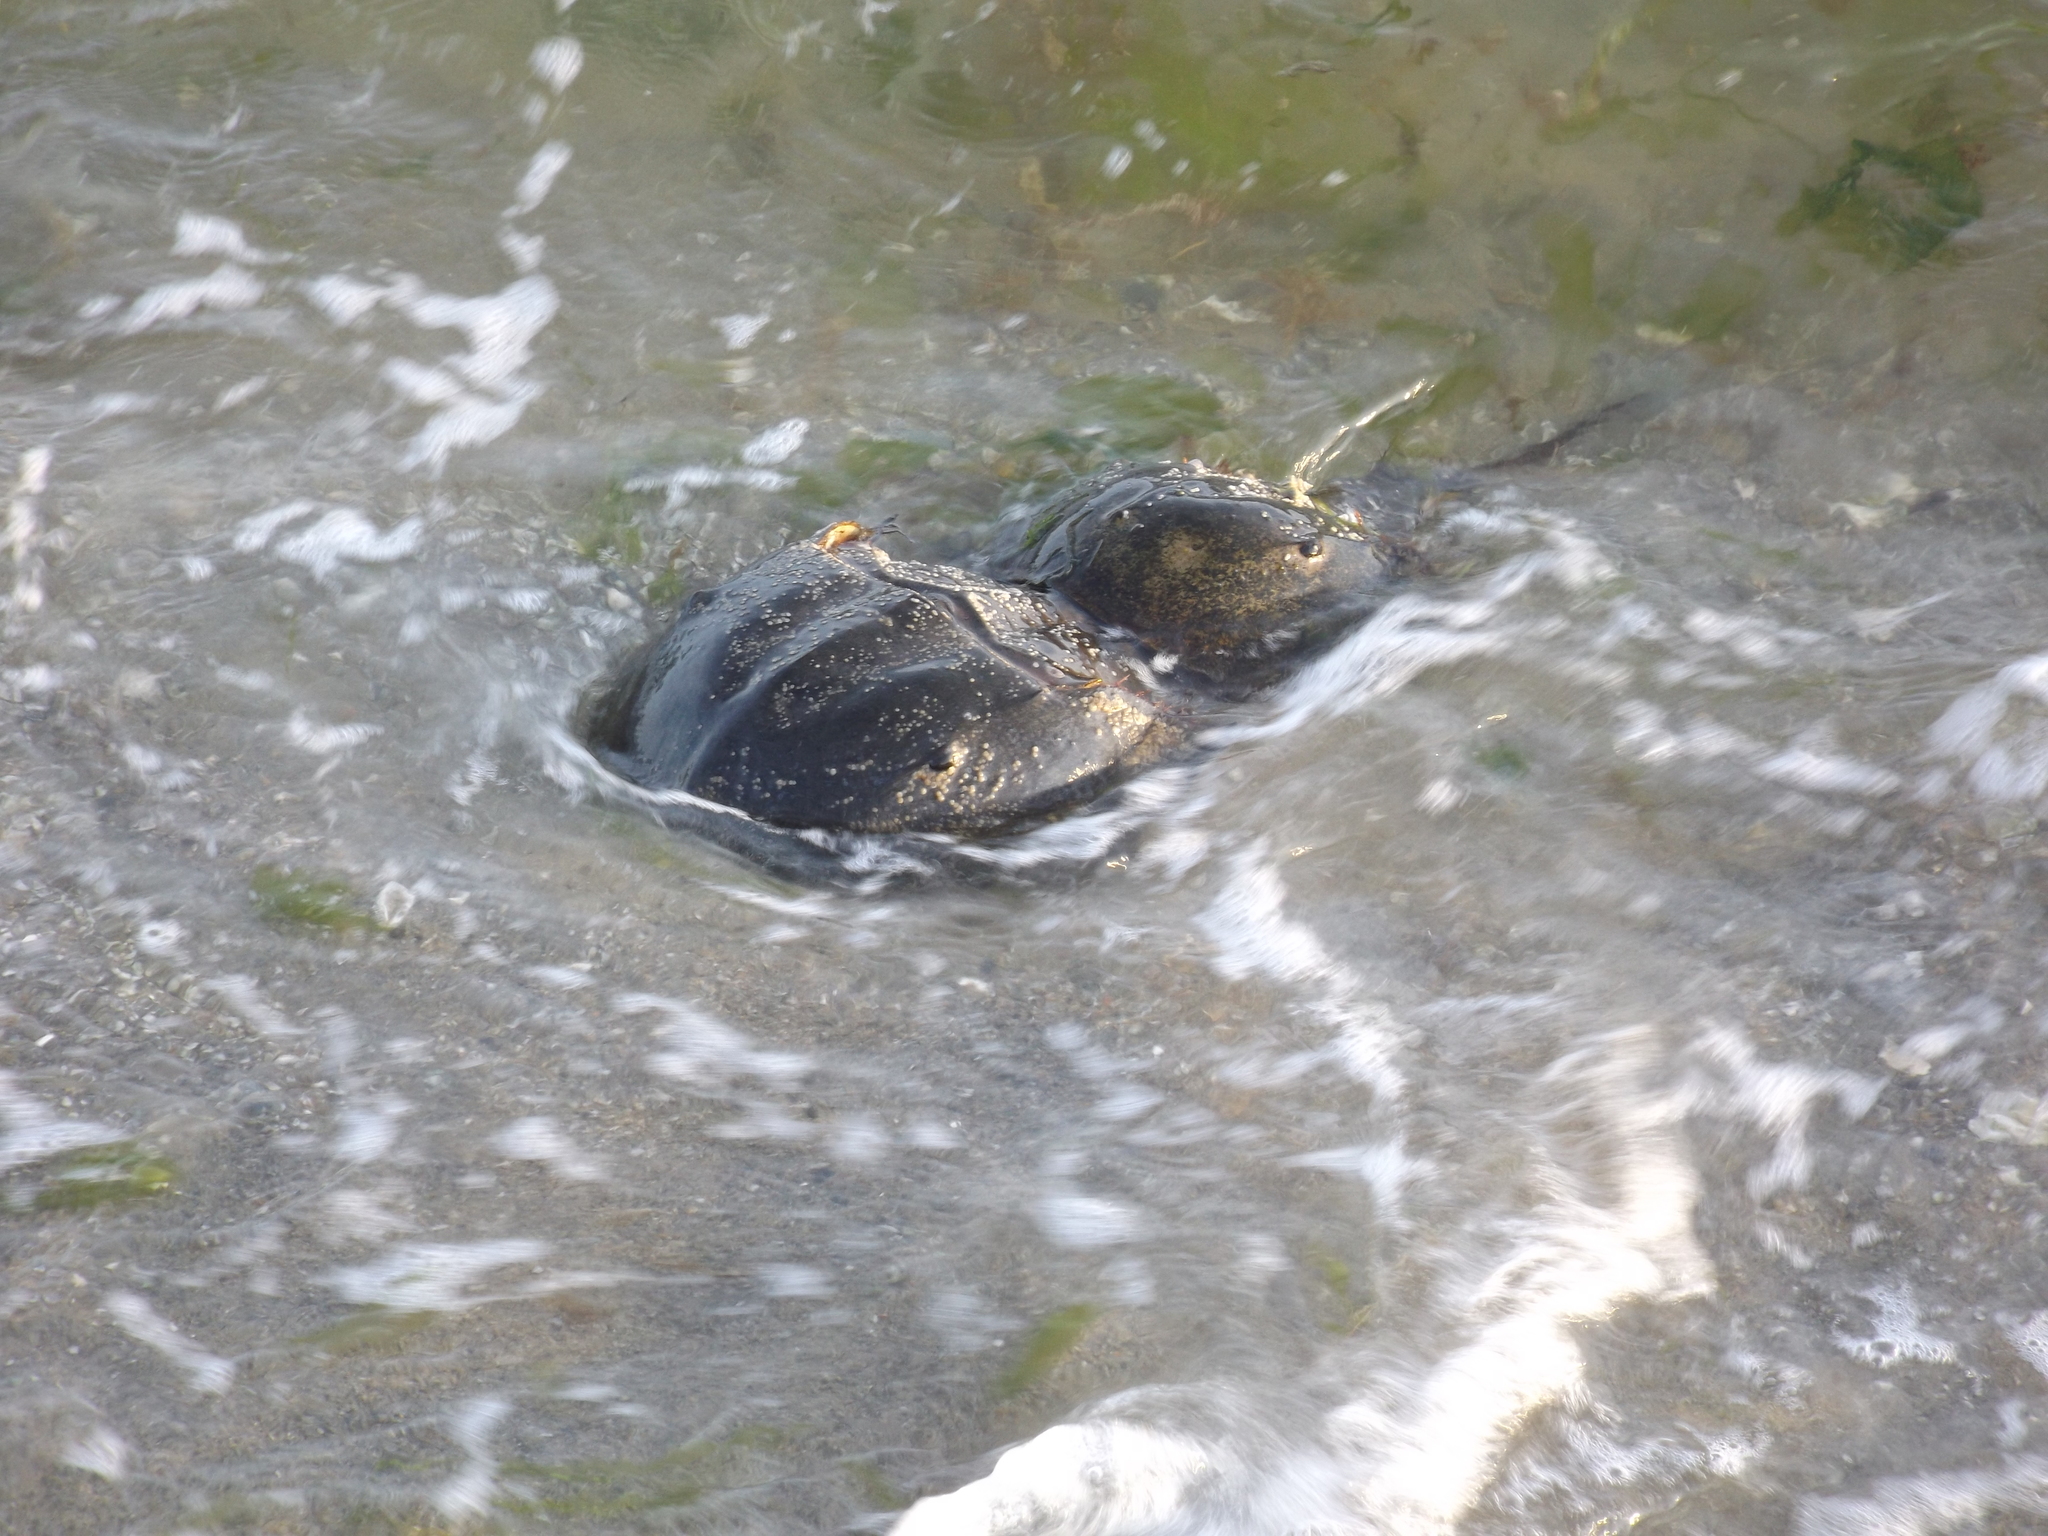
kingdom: Animalia
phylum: Arthropoda
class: Merostomata
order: Xiphosurida
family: Limulidae
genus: Limulus
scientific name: Limulus polyphemus
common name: Horseshoe crab
